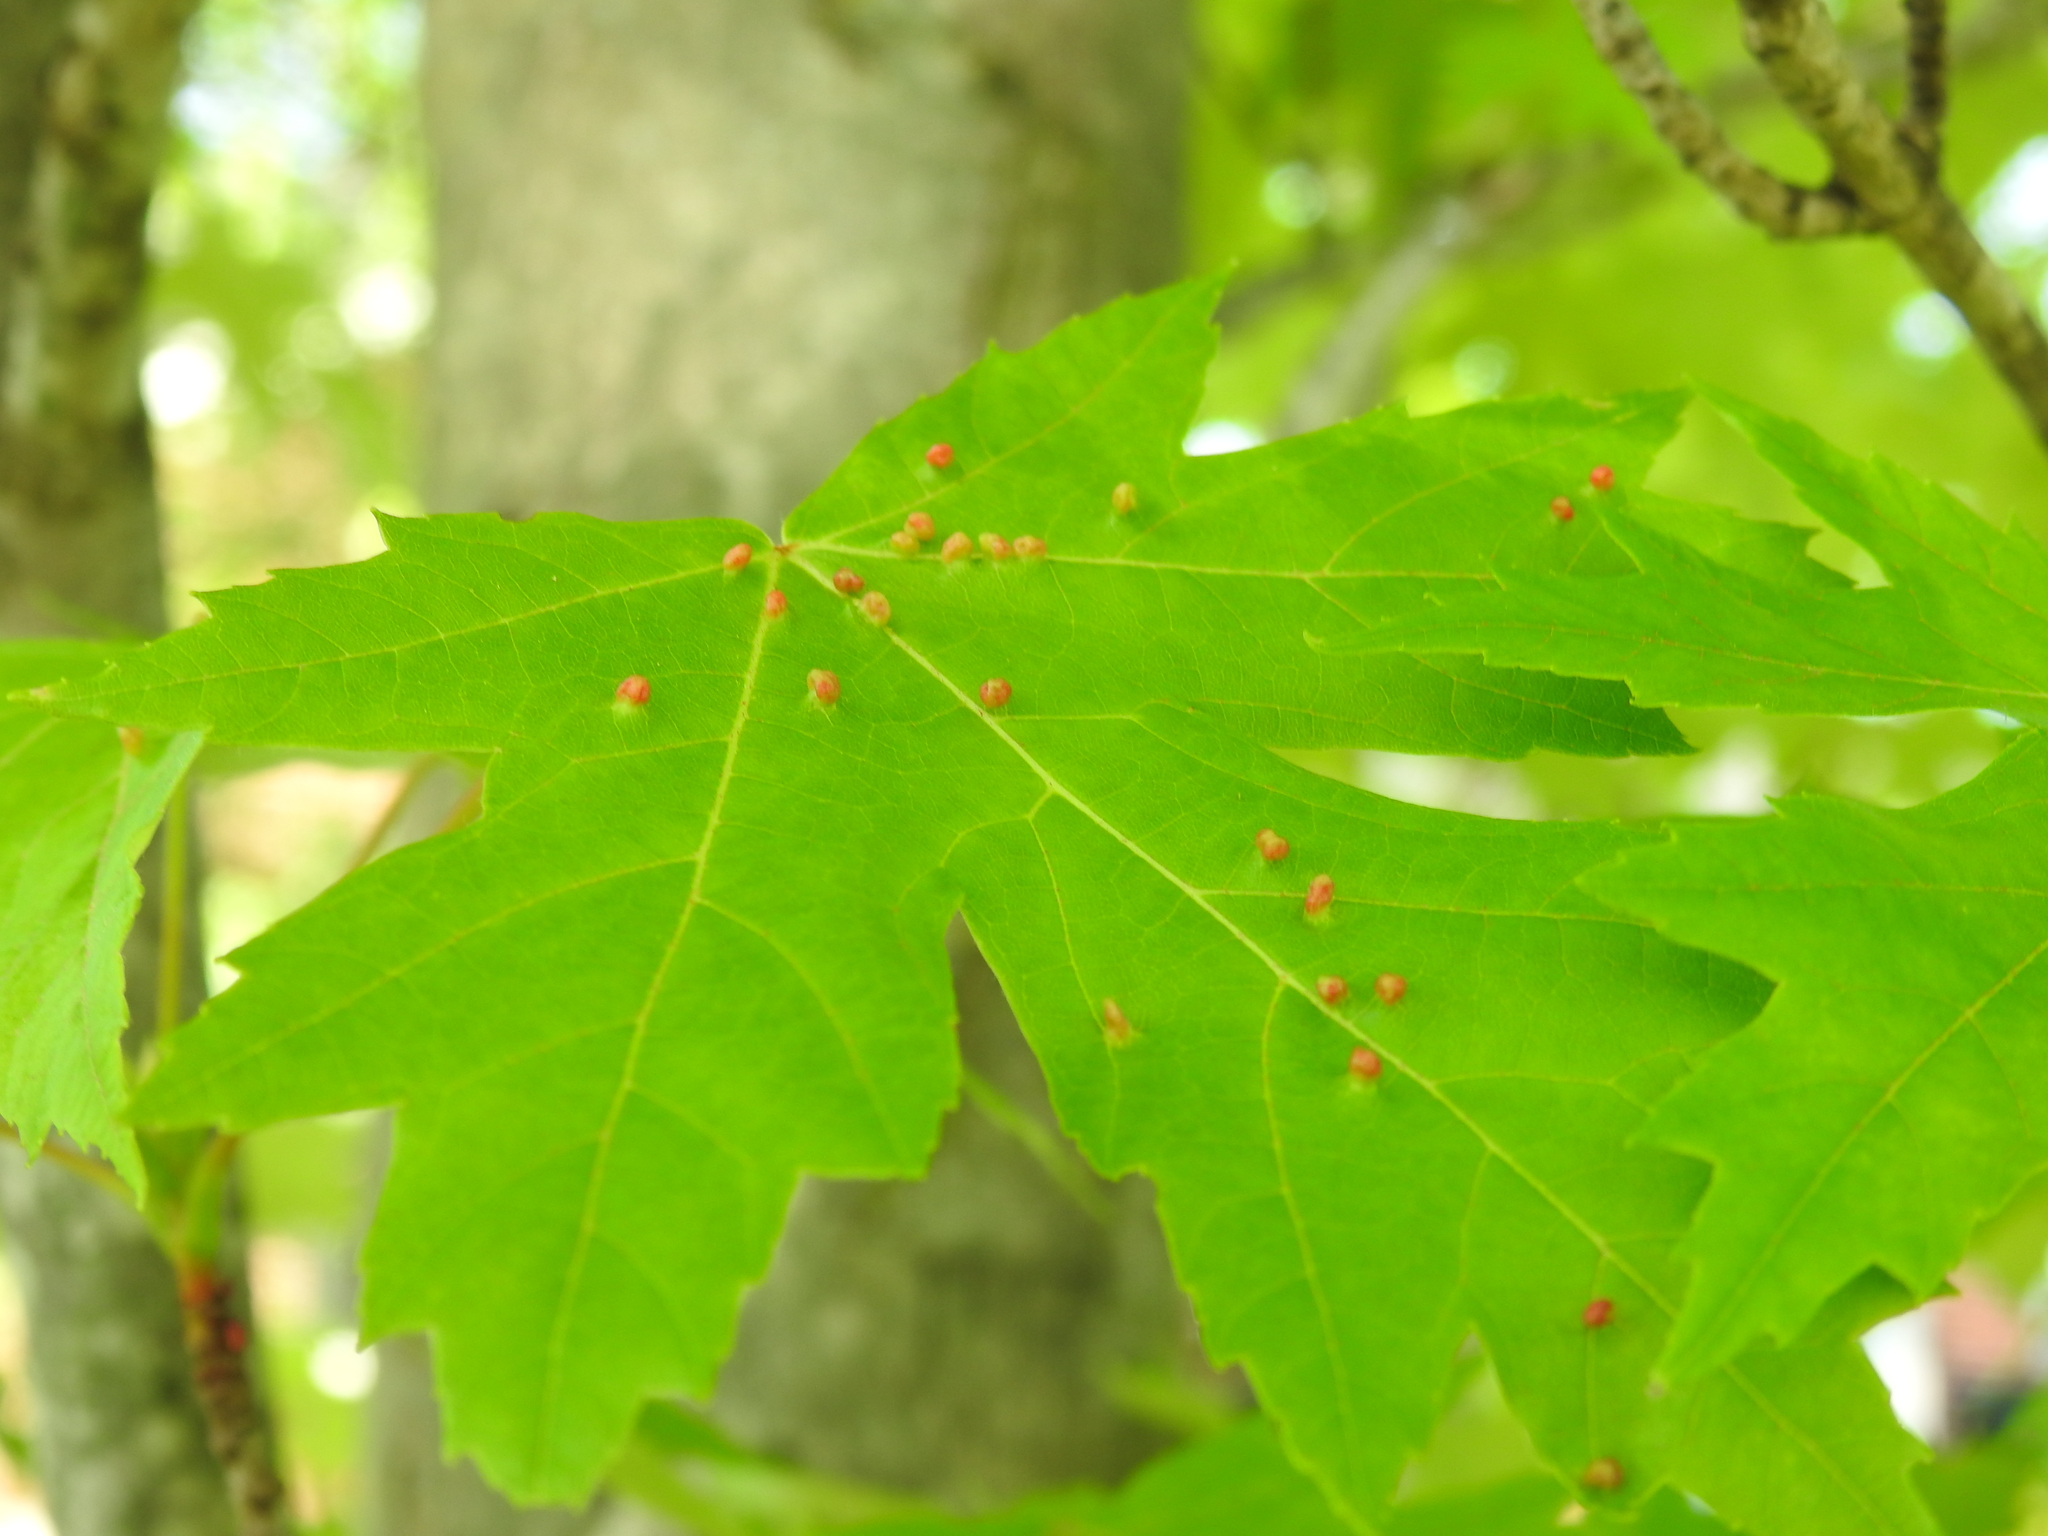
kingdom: Animalia
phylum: Arthropoda
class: Arachnida
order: Trombidiformes
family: Eriophyidae
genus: Vasates
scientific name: Vasates quadripedes
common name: Maple bladder gall mite
